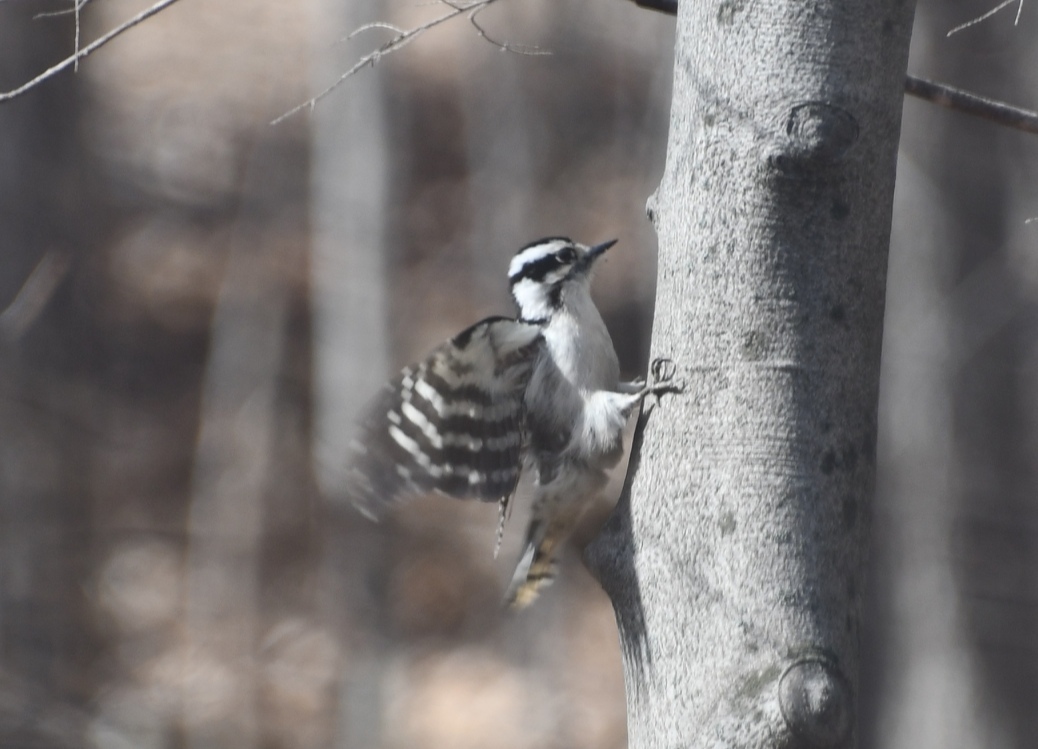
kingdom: Animalia
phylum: Chordata
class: Aves
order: Piciformes
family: Picidae
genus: Dryobates
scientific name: Dryobates pubescens
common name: Downy woodpecker
